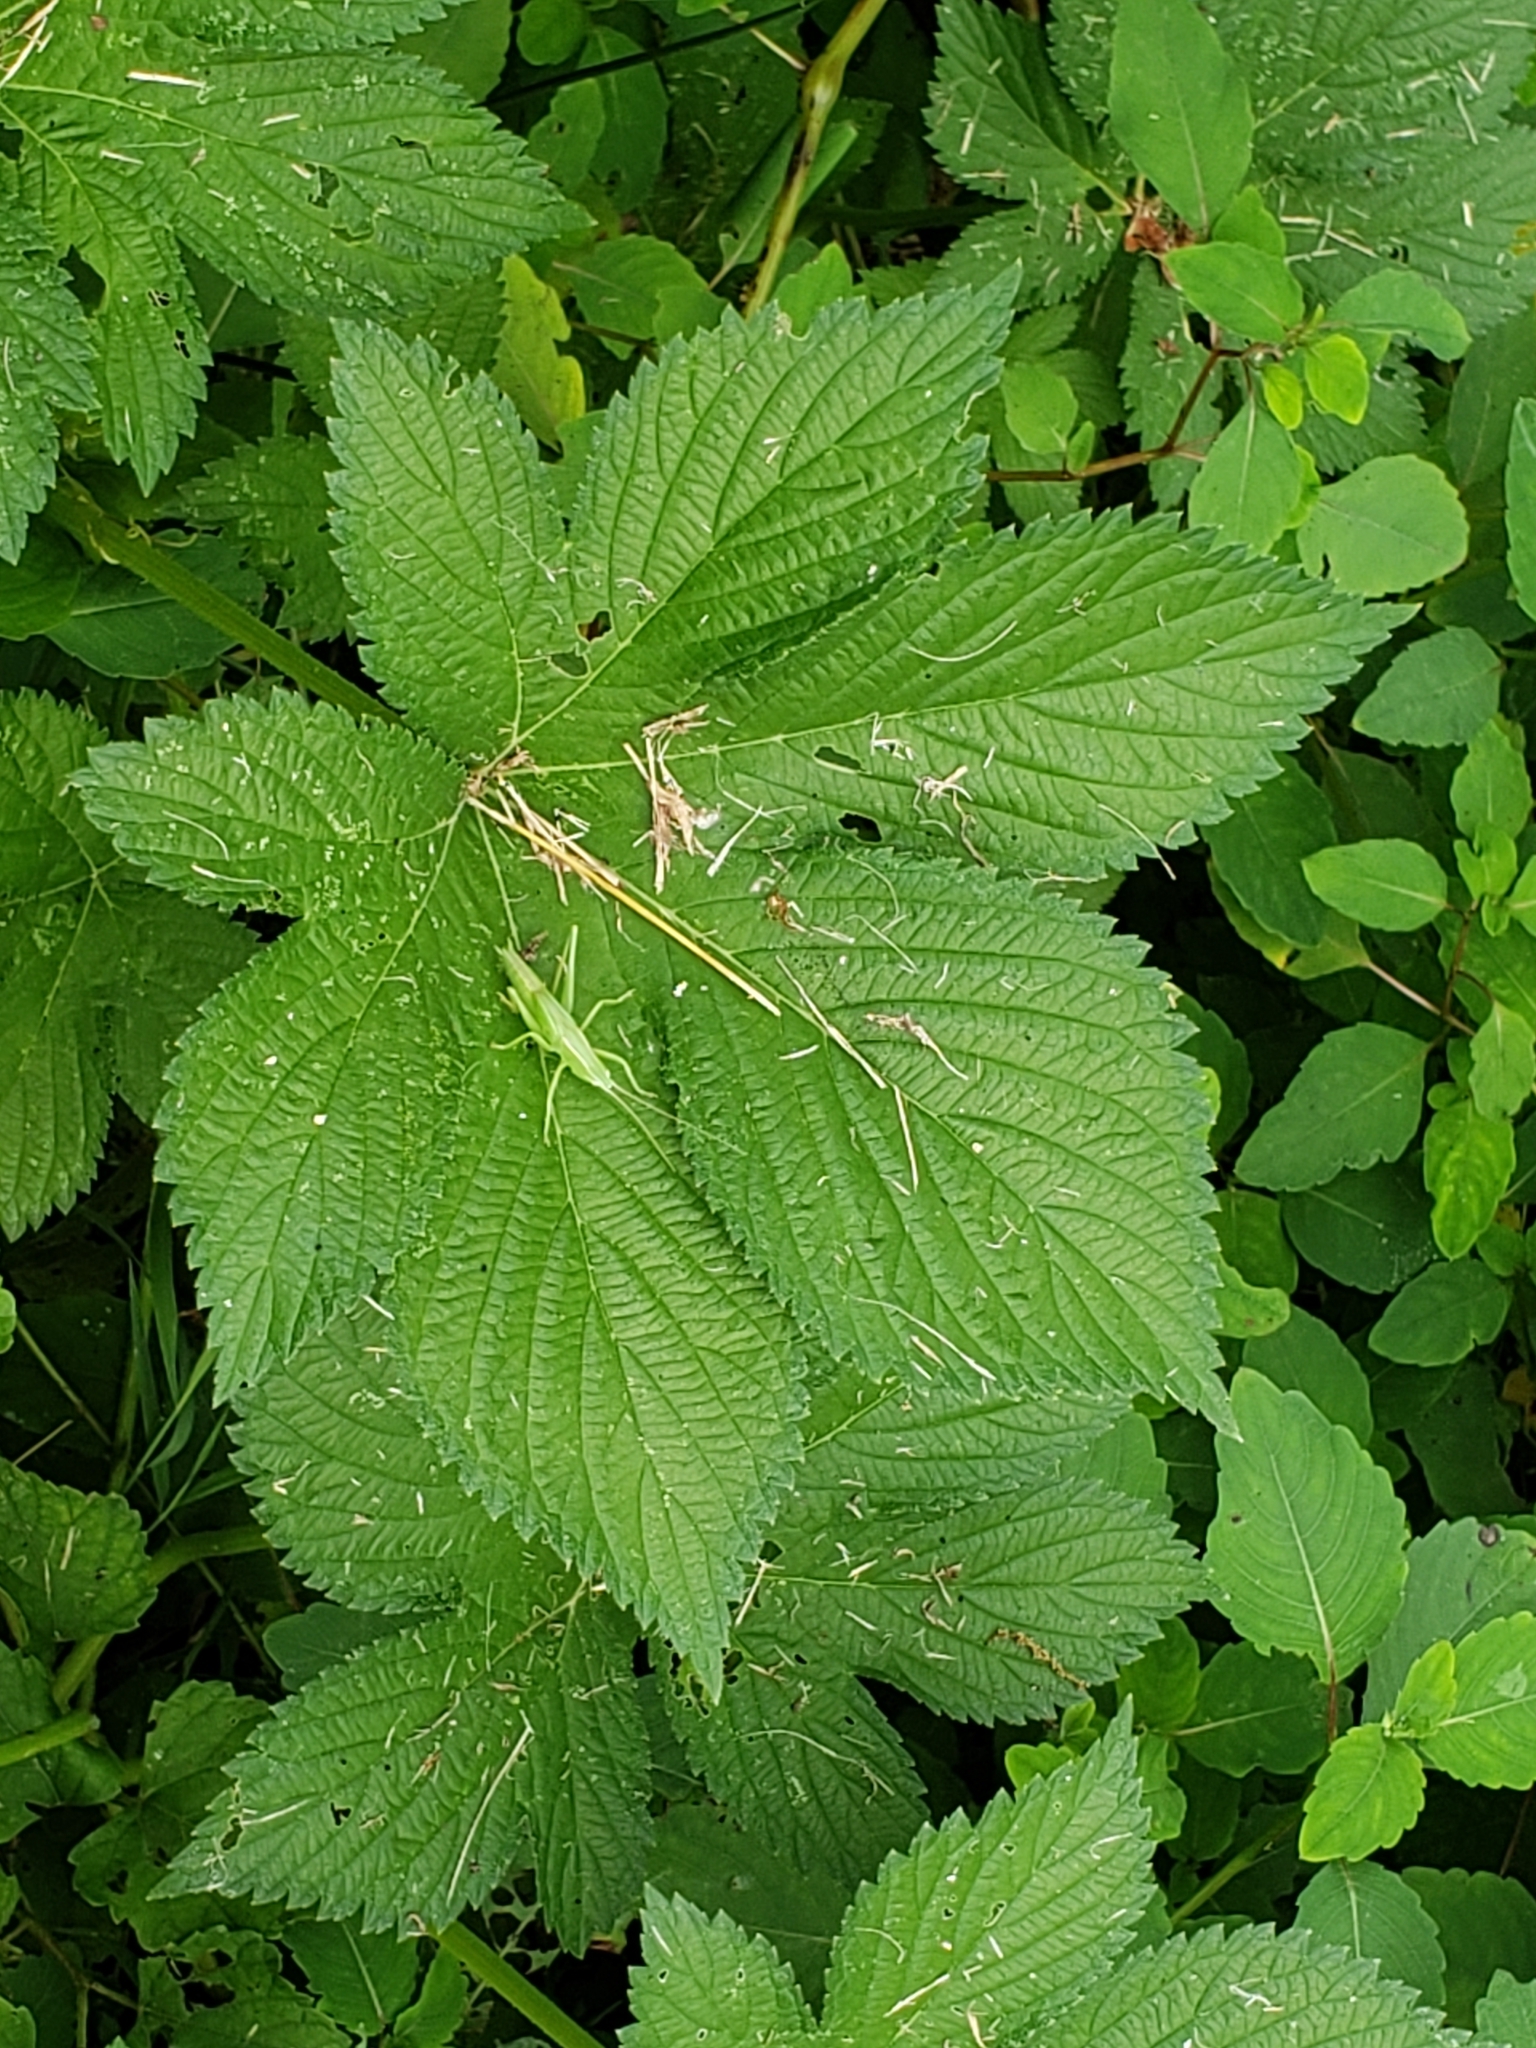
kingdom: Plantae
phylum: Tracheophyta
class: Magnoliopsida
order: Rosales
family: Cannabaceae
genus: Humulus
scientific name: Humulus scandens
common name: Japanese hop
